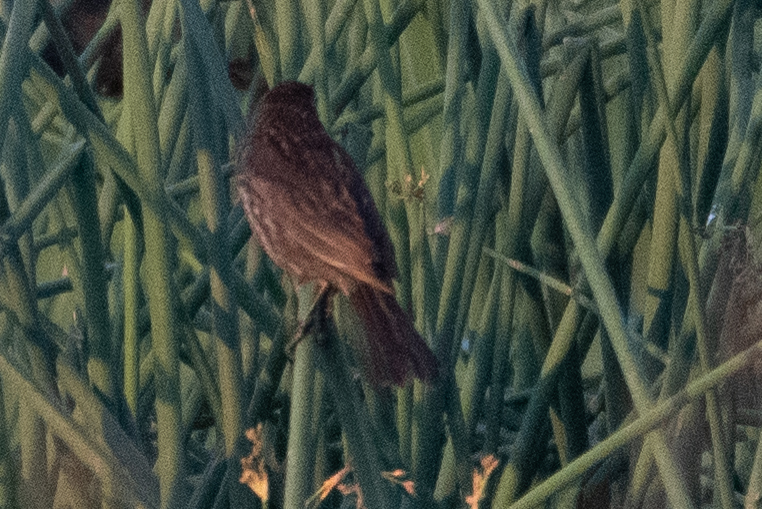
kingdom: Animalia
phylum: Chordata
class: Aves
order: Passeriformes
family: Icteridae
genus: Agelaius
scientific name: Agelaius phoeniceus
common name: Red-winged blackbird
